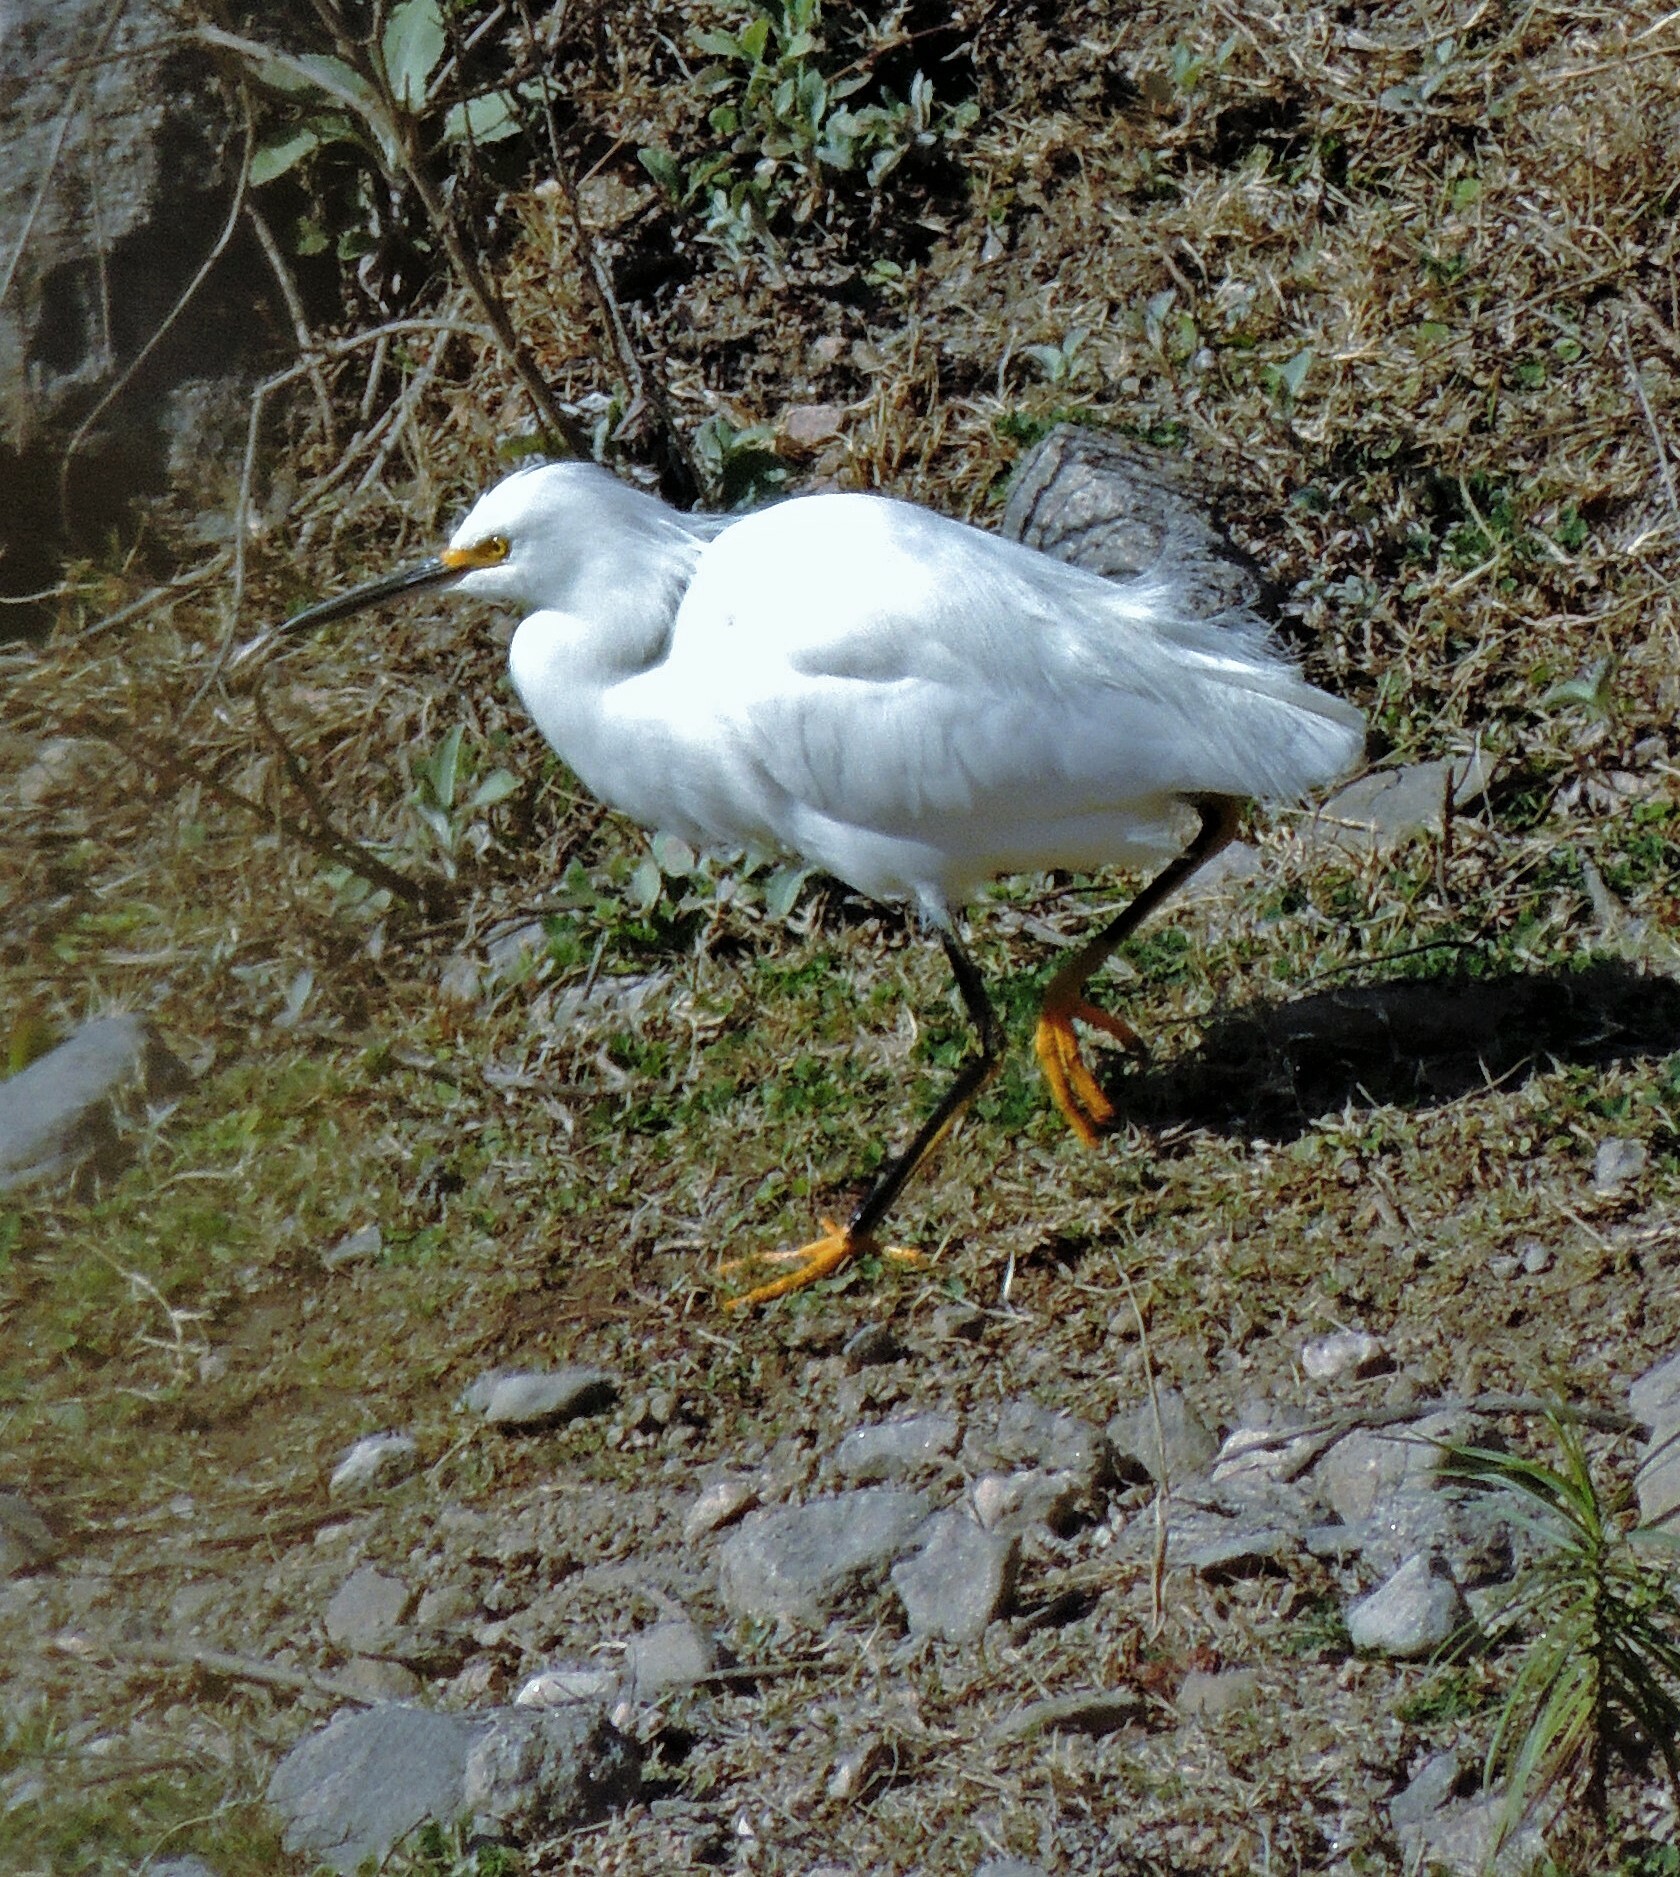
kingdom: Animalia
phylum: Chordata
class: Aves
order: Pelecaniformes
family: Ardeidae
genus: Egretta
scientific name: Egretta thula
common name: Snowy egret
